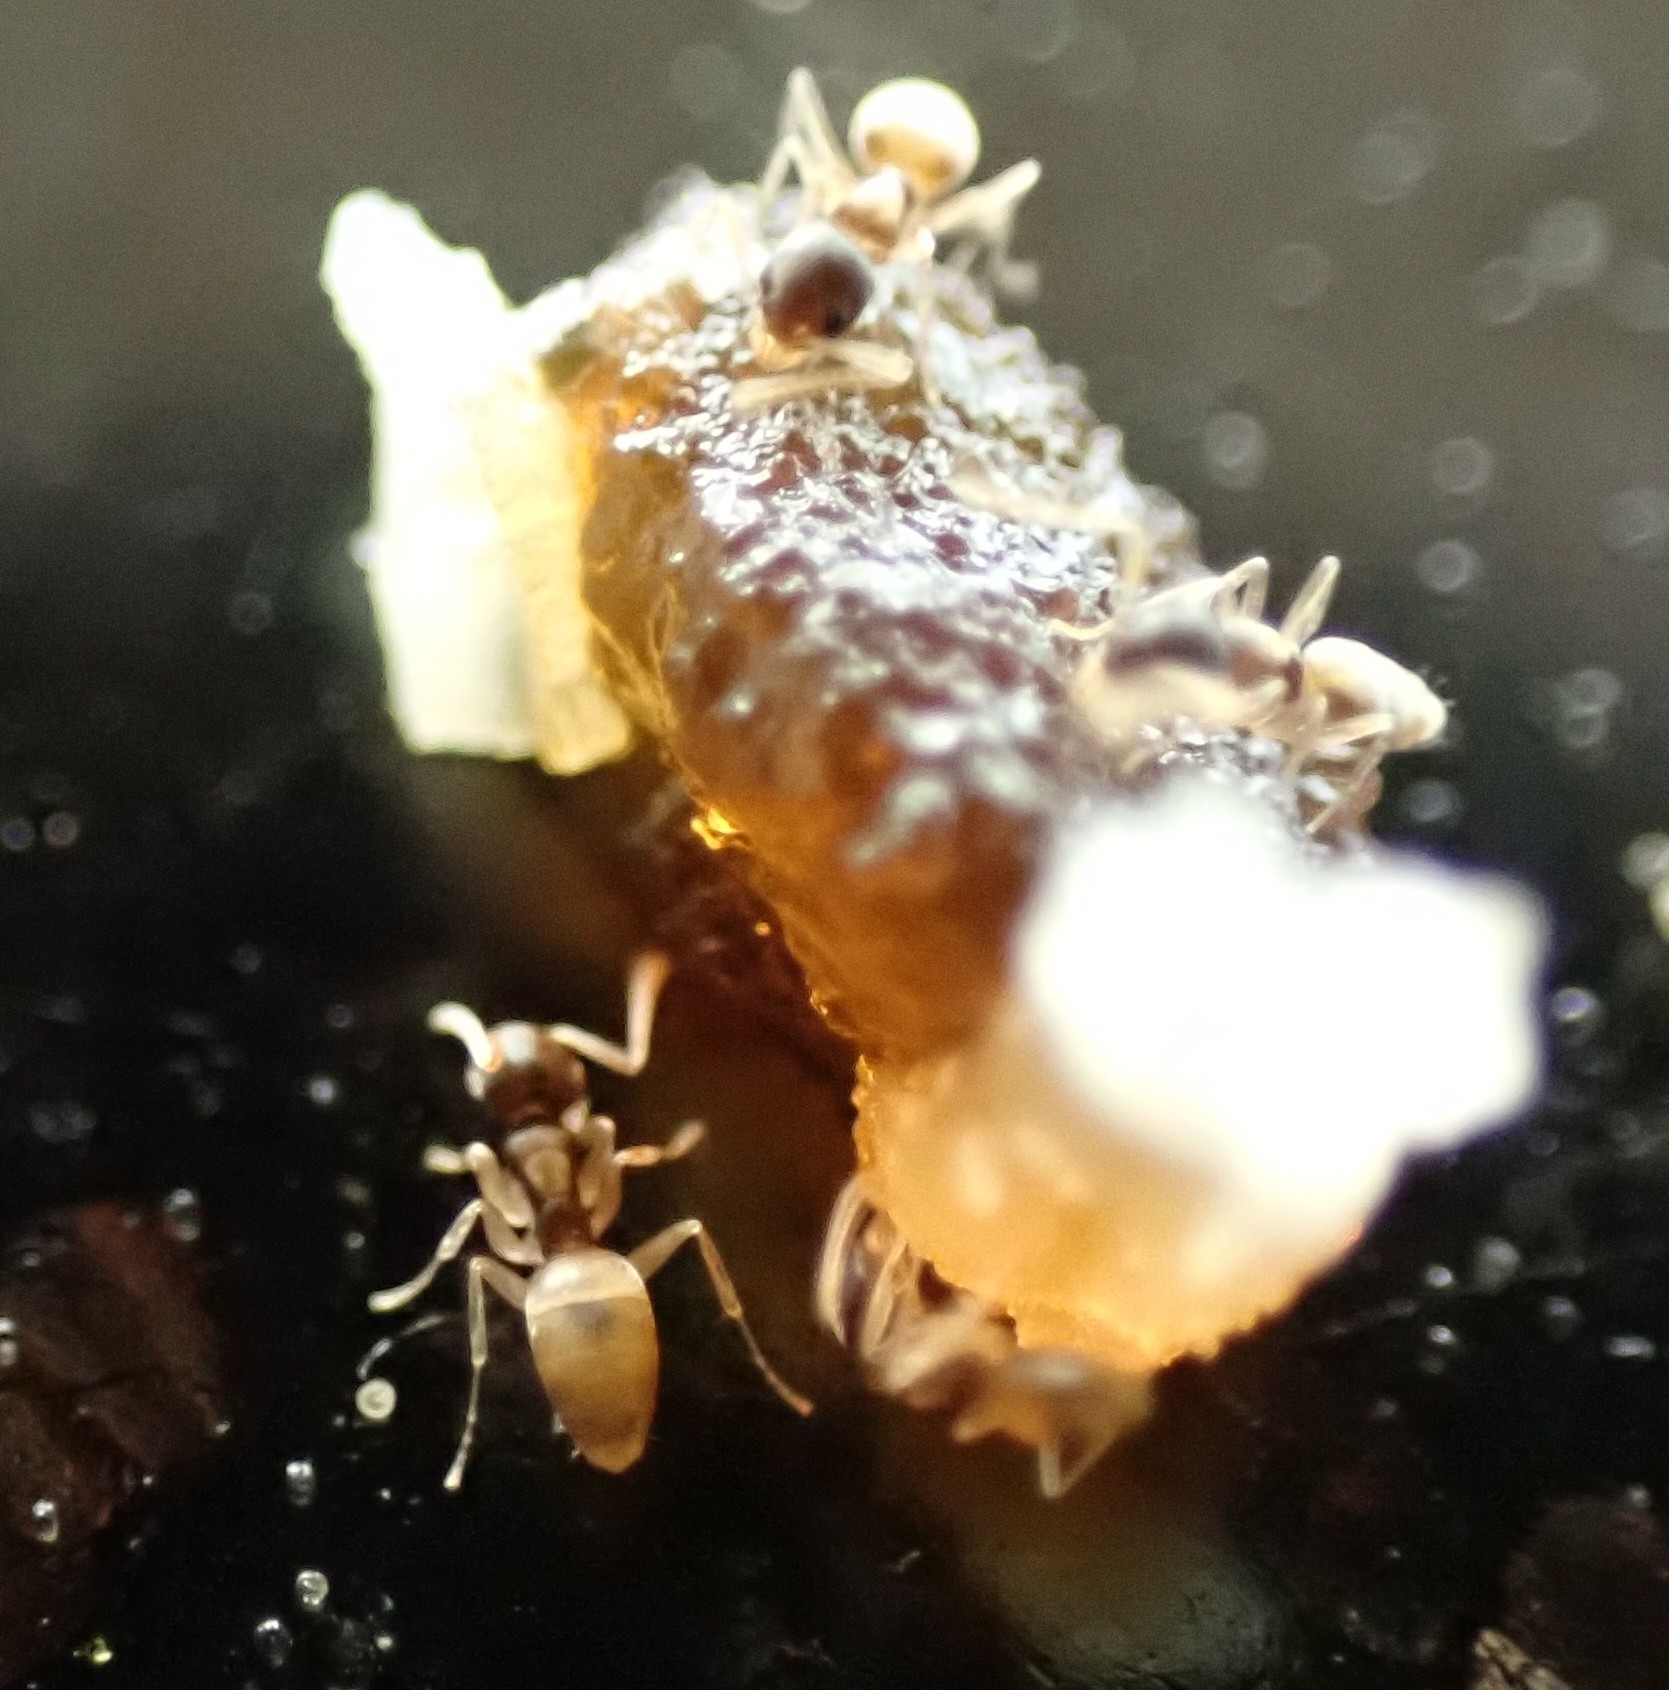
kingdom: Animalia
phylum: Arthropoda
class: Insecta
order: Hymenoptera
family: Formicidae
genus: Tapinoma
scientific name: Tapinoma melanocephalum
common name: Ghost ant
